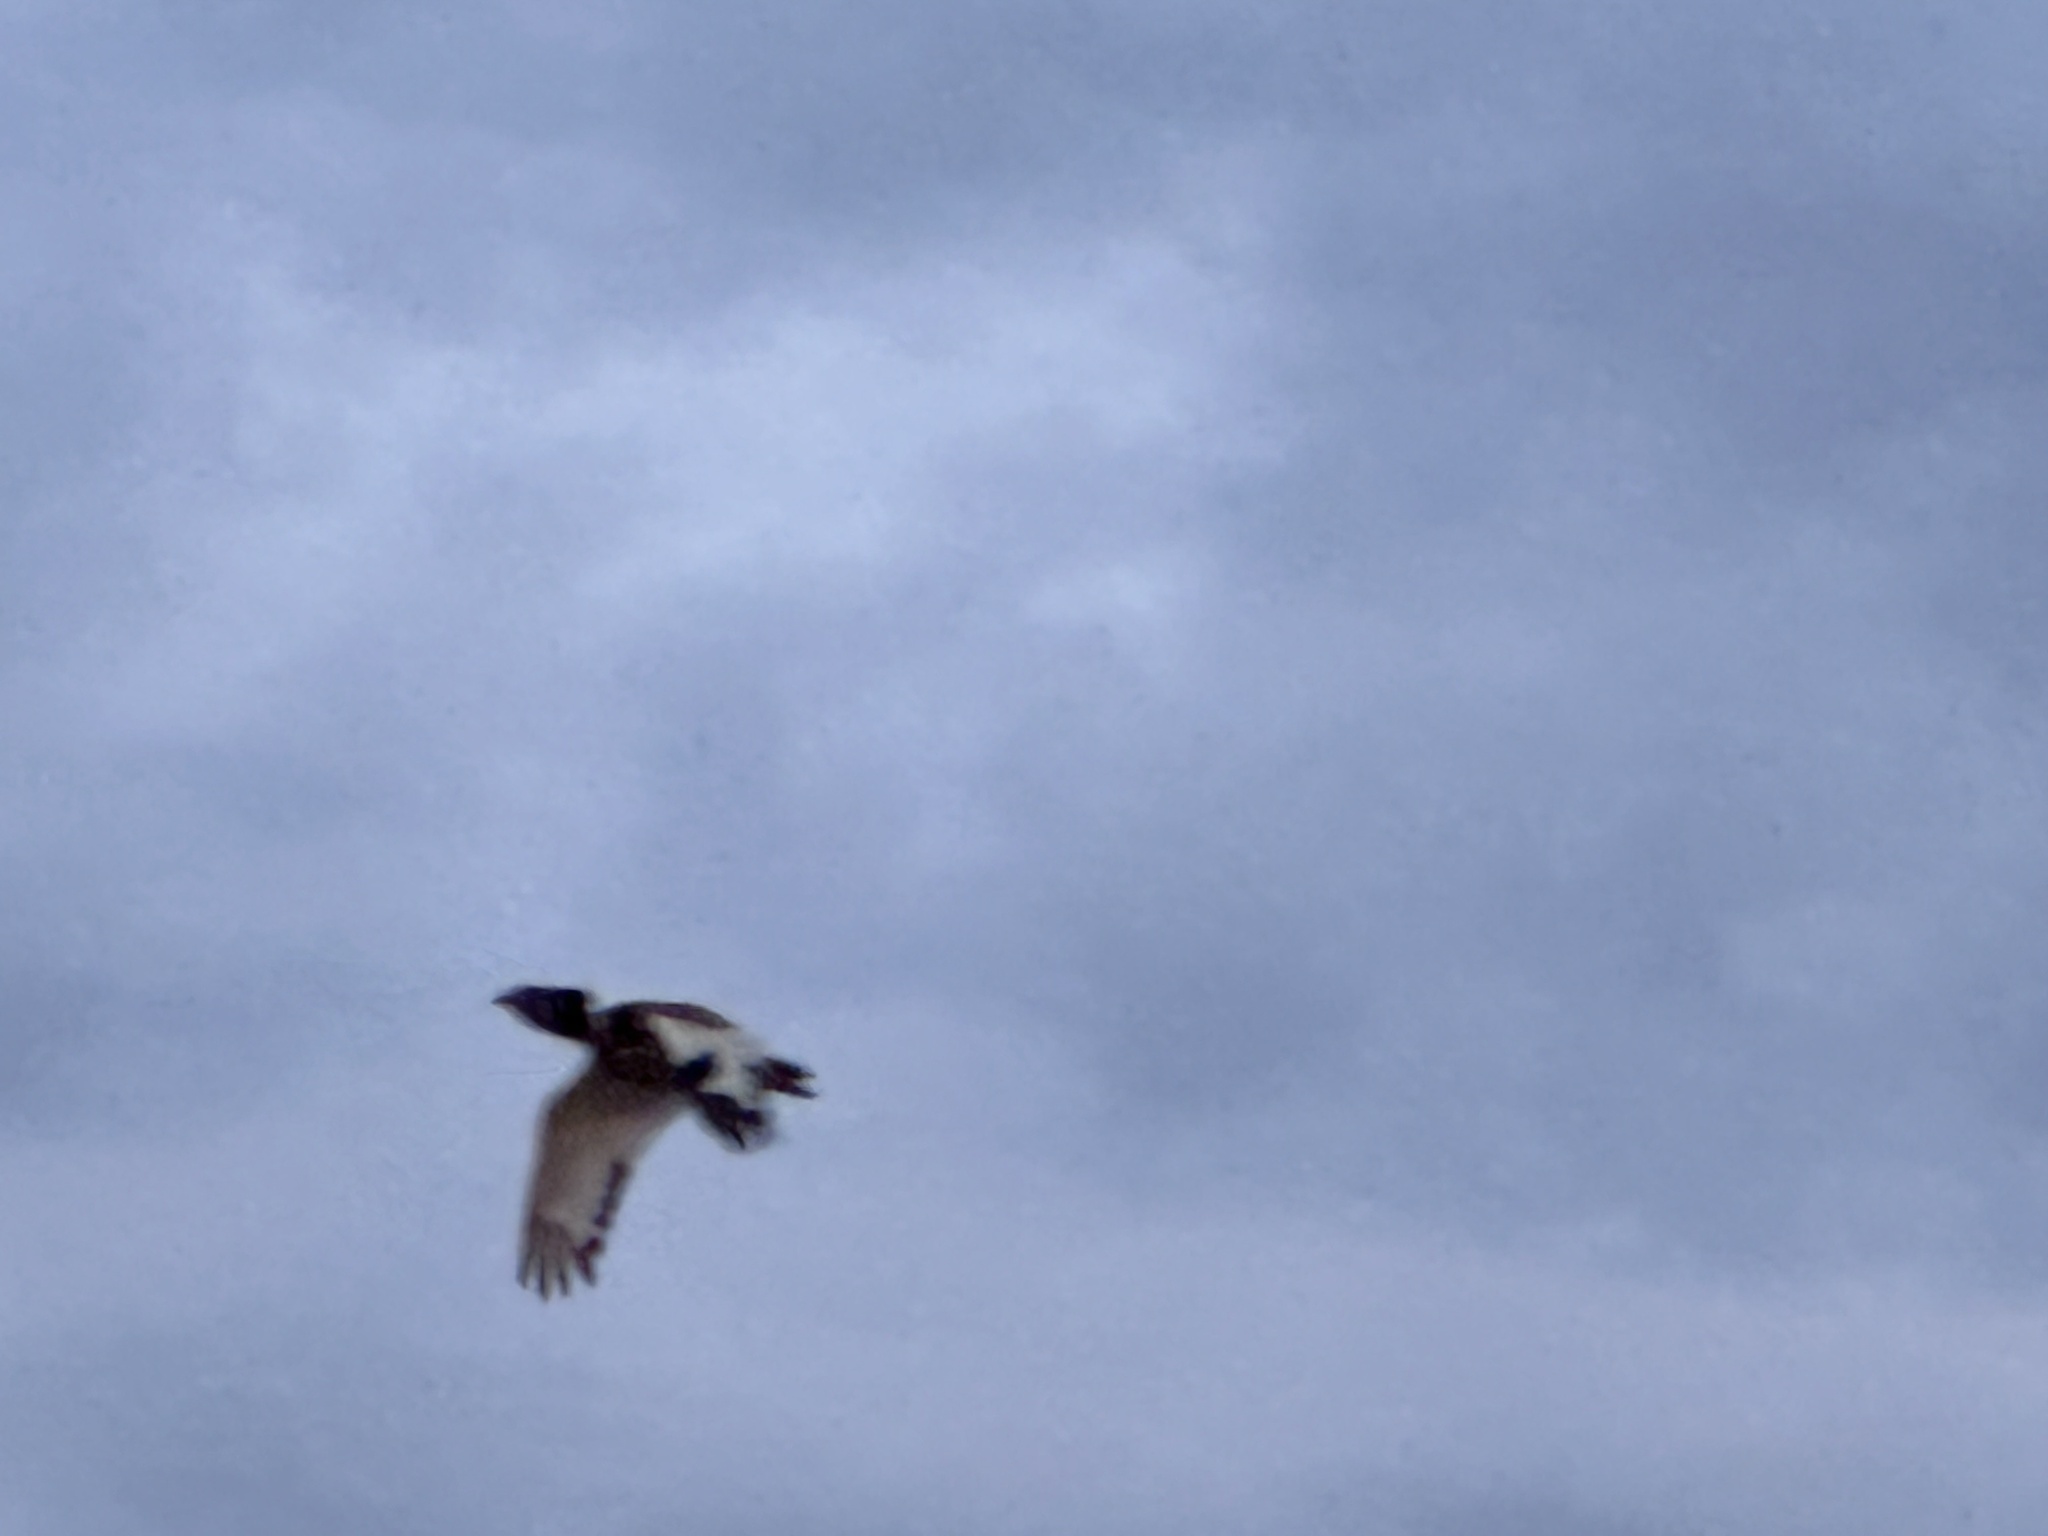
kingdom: Animalia
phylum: Chordata
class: Aves
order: Otidiformes
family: Otididae
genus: Tetrax
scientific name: Tetrax tetrax
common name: Little bustard
